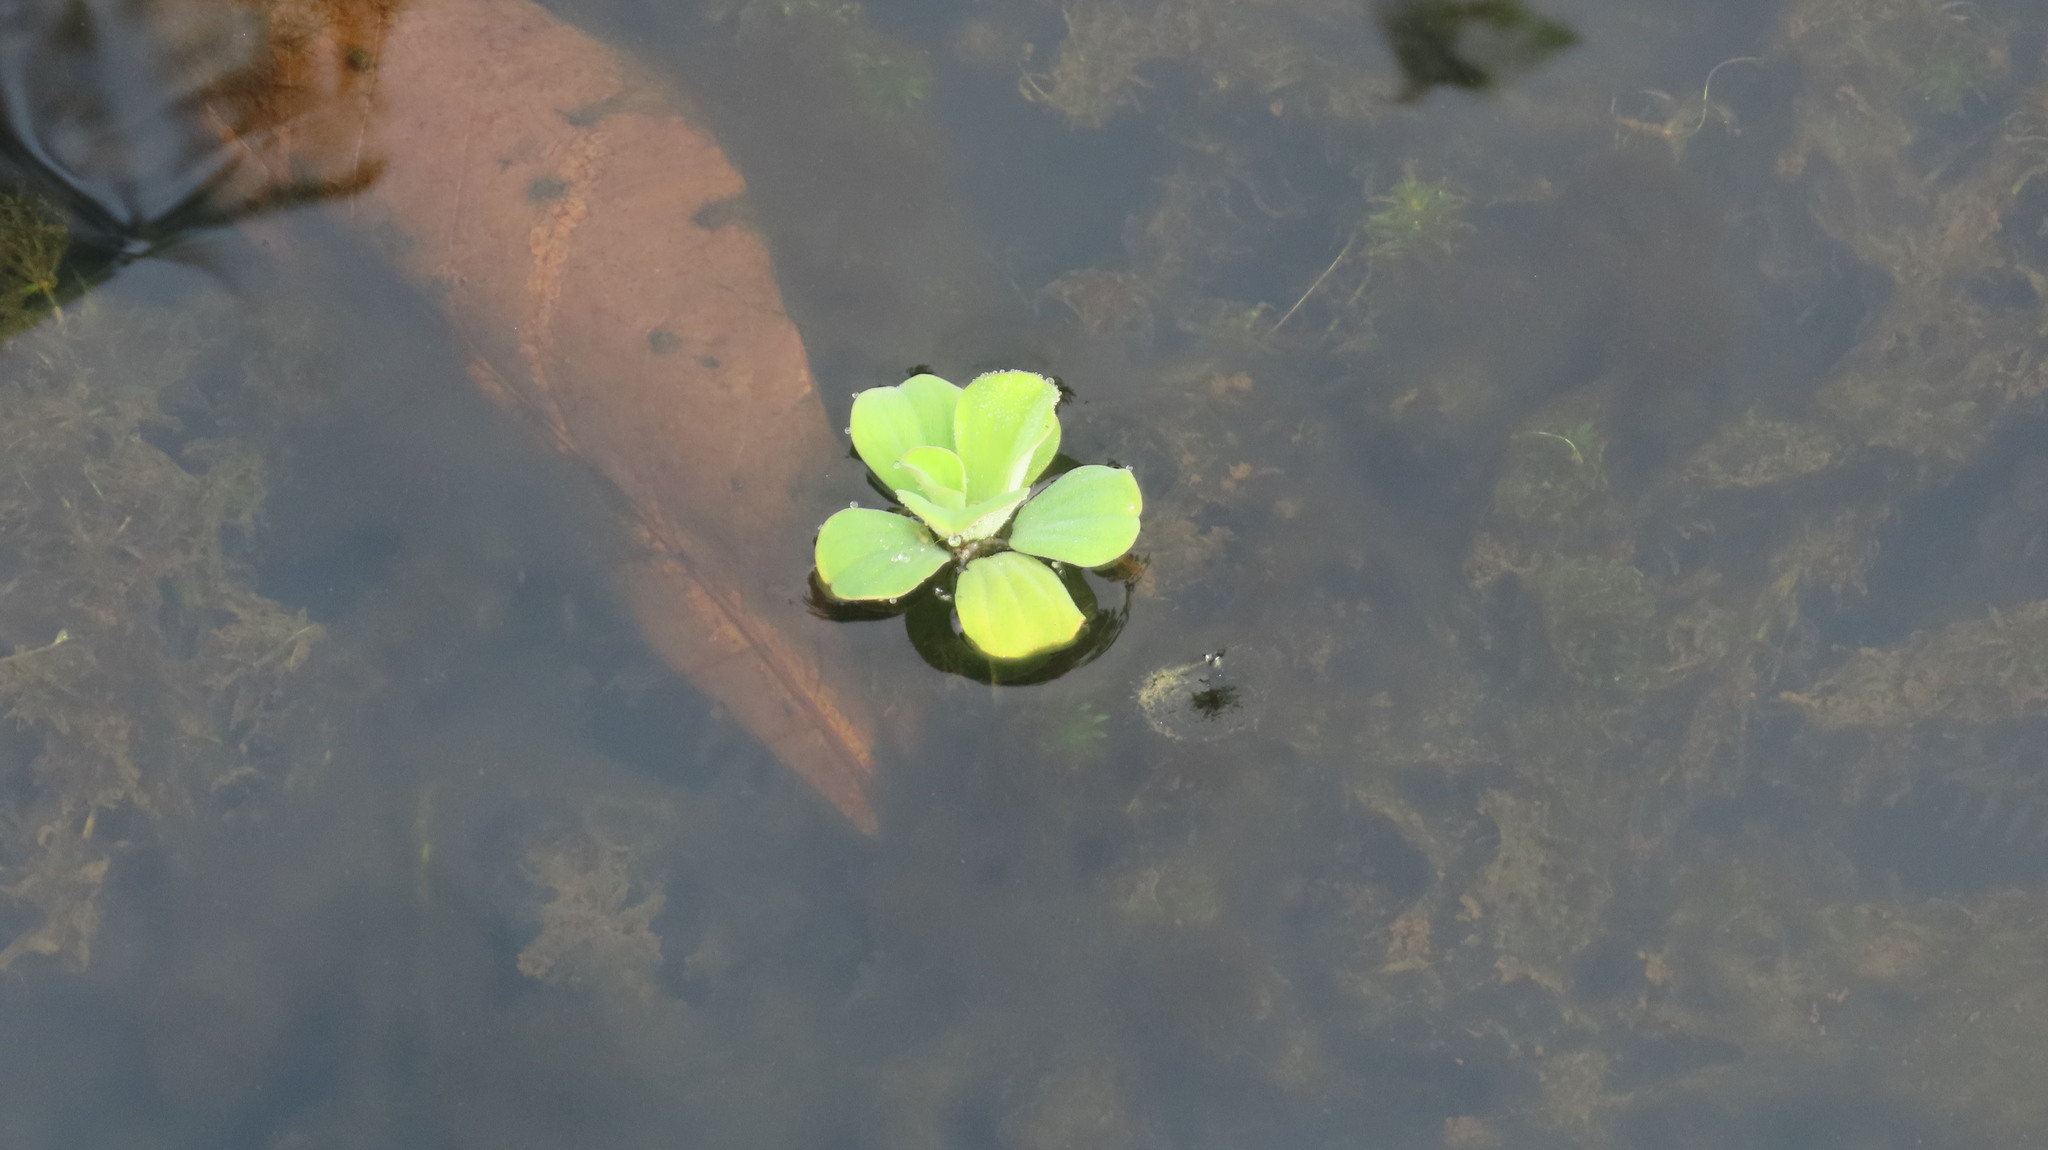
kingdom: Plantae
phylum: Tracheophyta
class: Liliopsida
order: Alismatales
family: Araceae
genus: Pistia
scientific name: Pistia stratiotes
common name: Water lettuce
